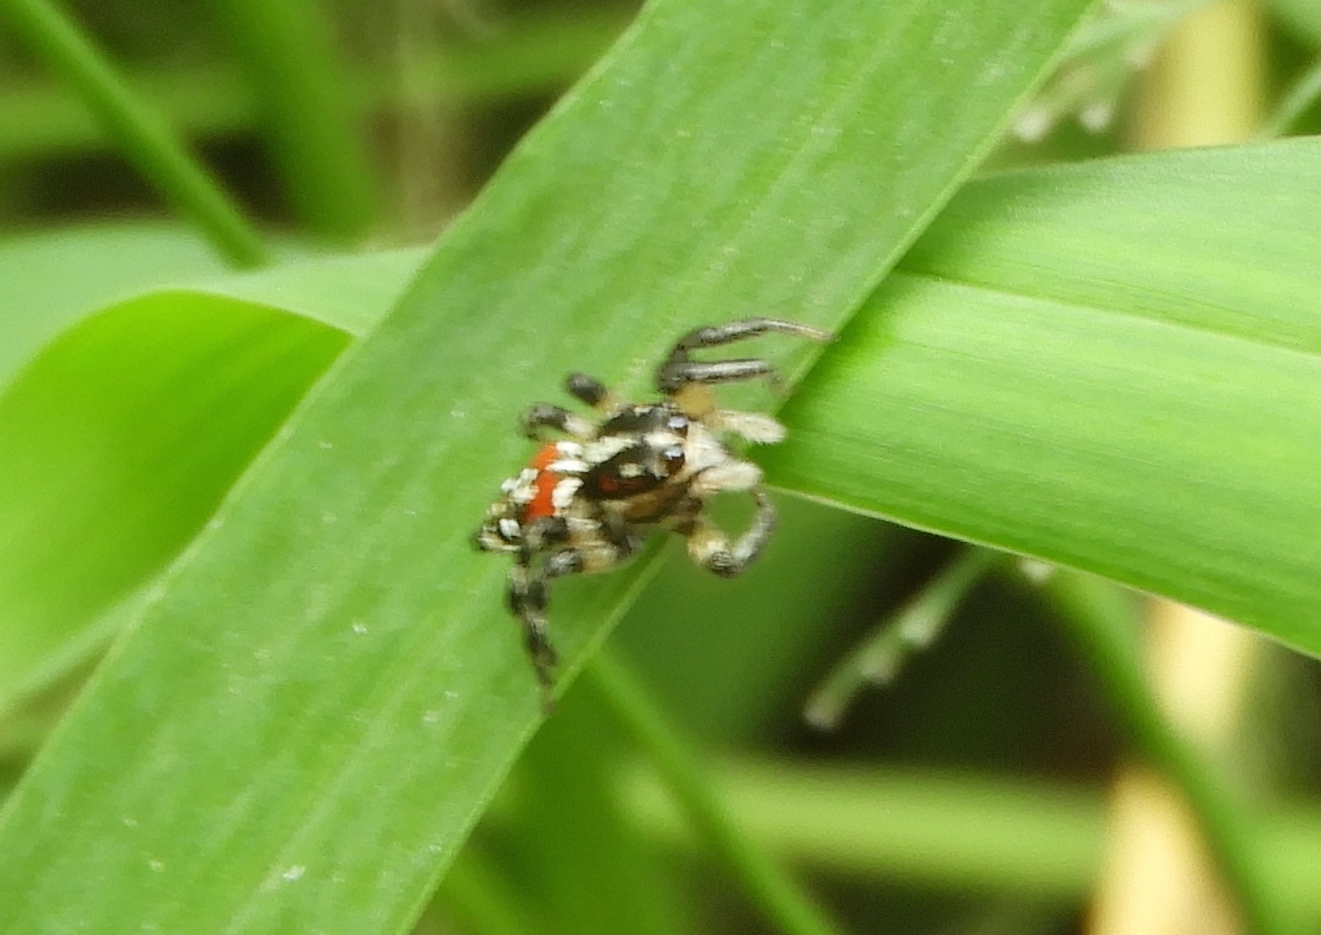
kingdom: Animalia
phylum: Arthropoda
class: Arachnida
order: Araneae
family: Salticidae
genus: Nycerella
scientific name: Nycerella delecta
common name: Jumping spiders
